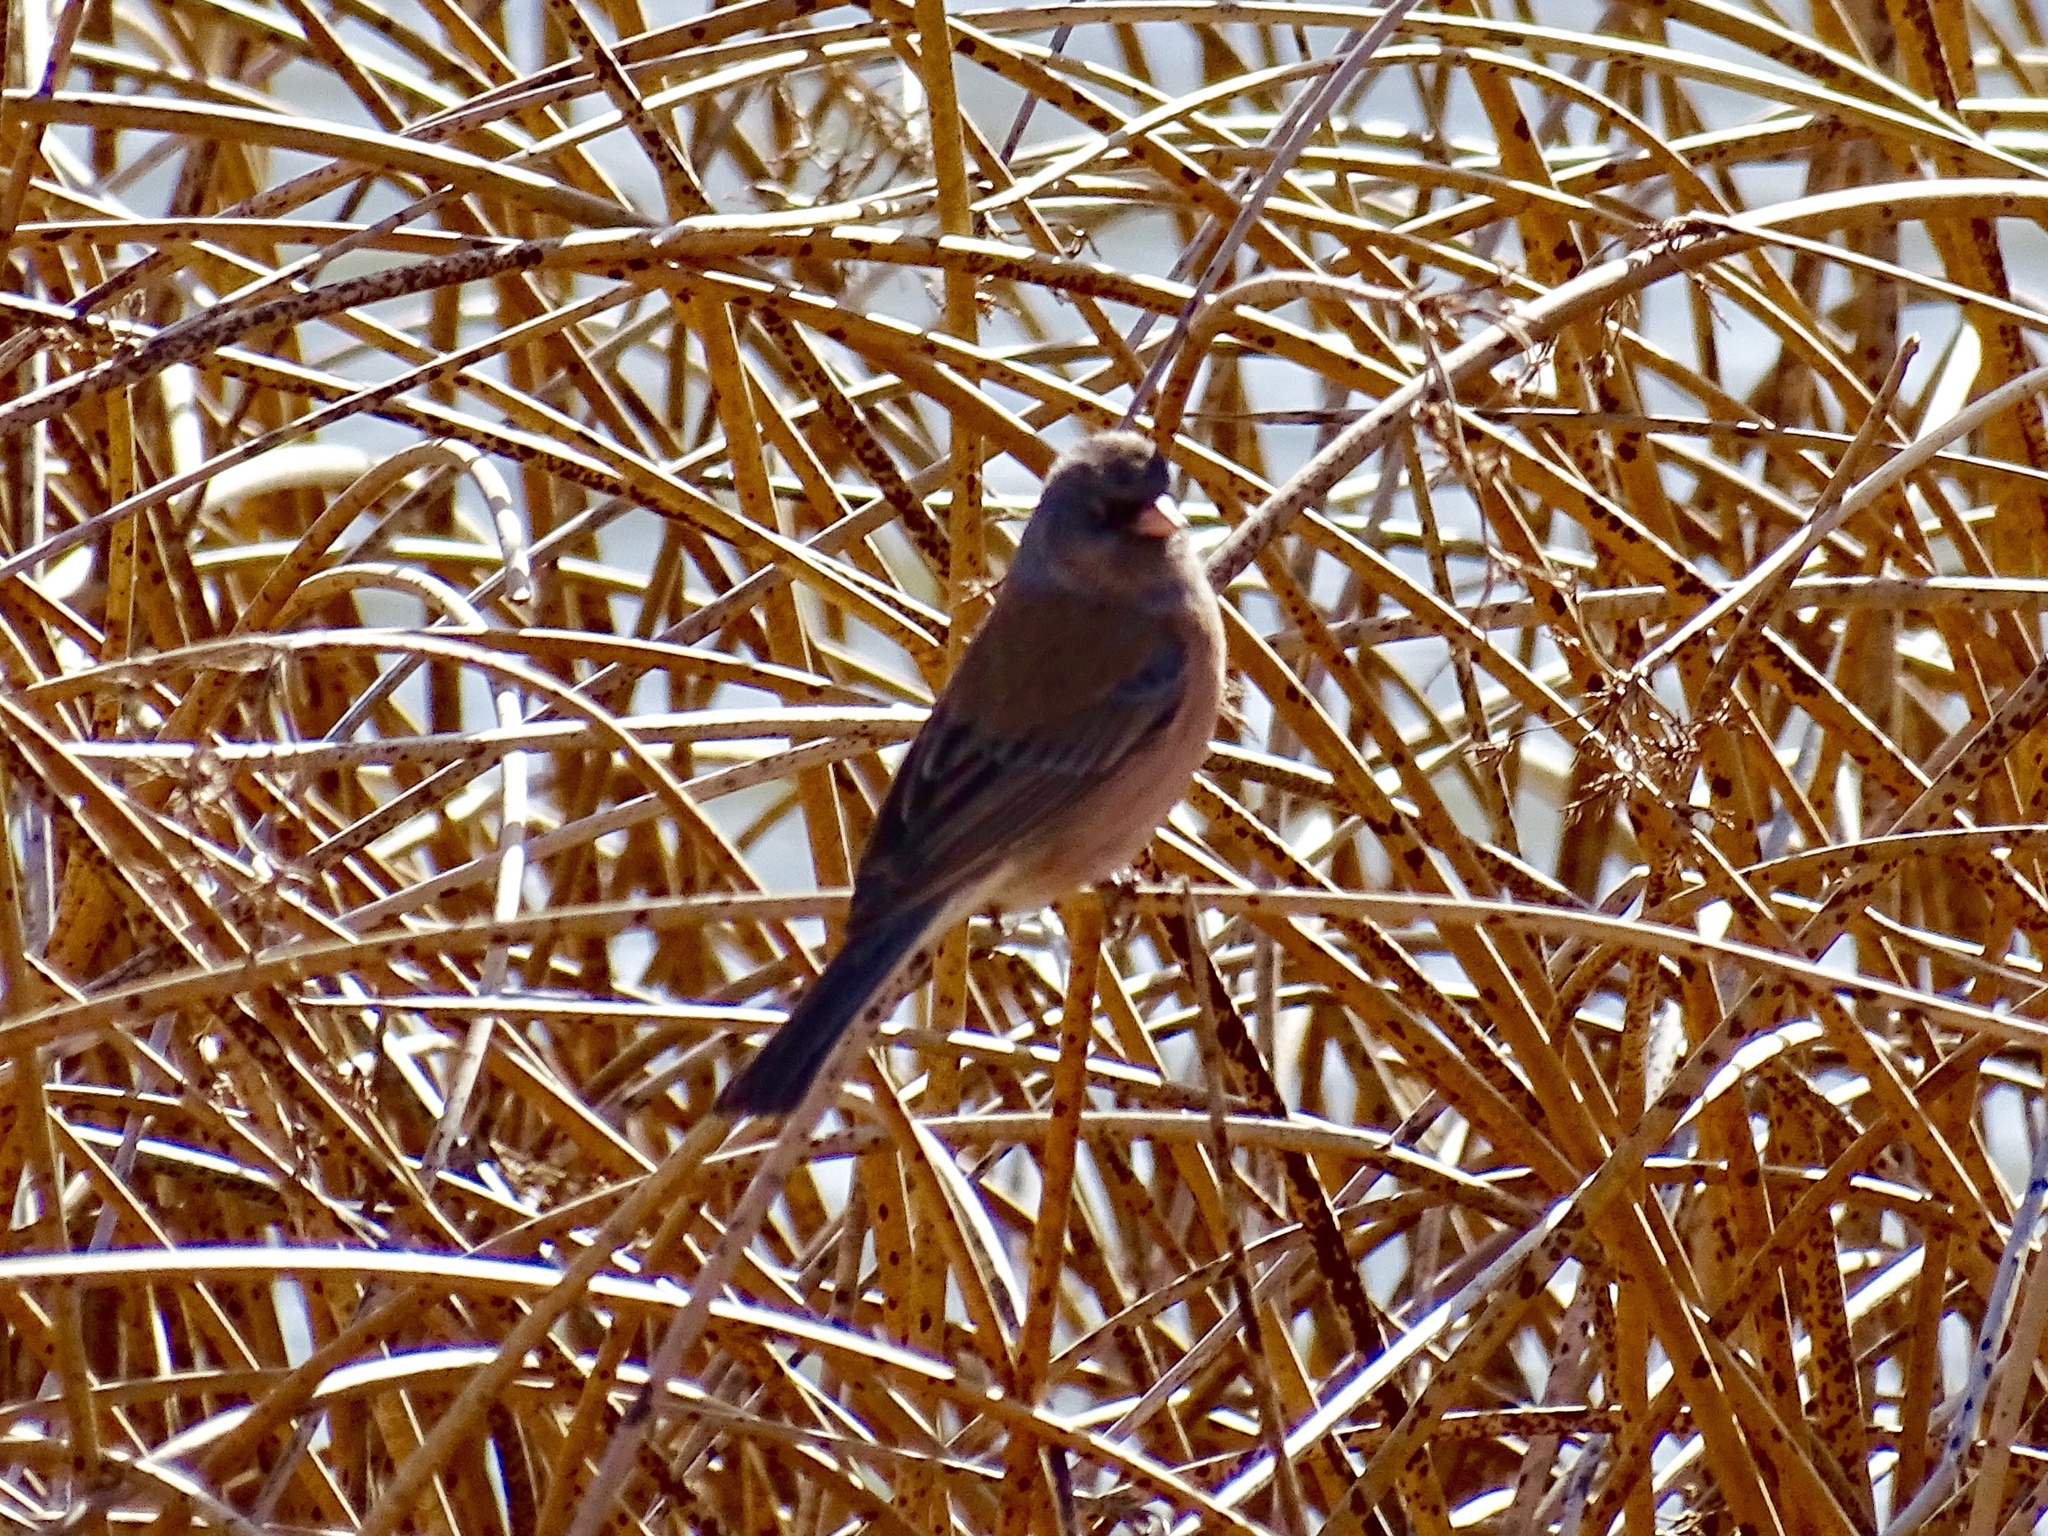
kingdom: Animalia
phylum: Chordata
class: Aves
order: Passeriformes
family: Passerellidae
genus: Junco
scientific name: Junco hyemalis
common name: Dark-eyed junco
